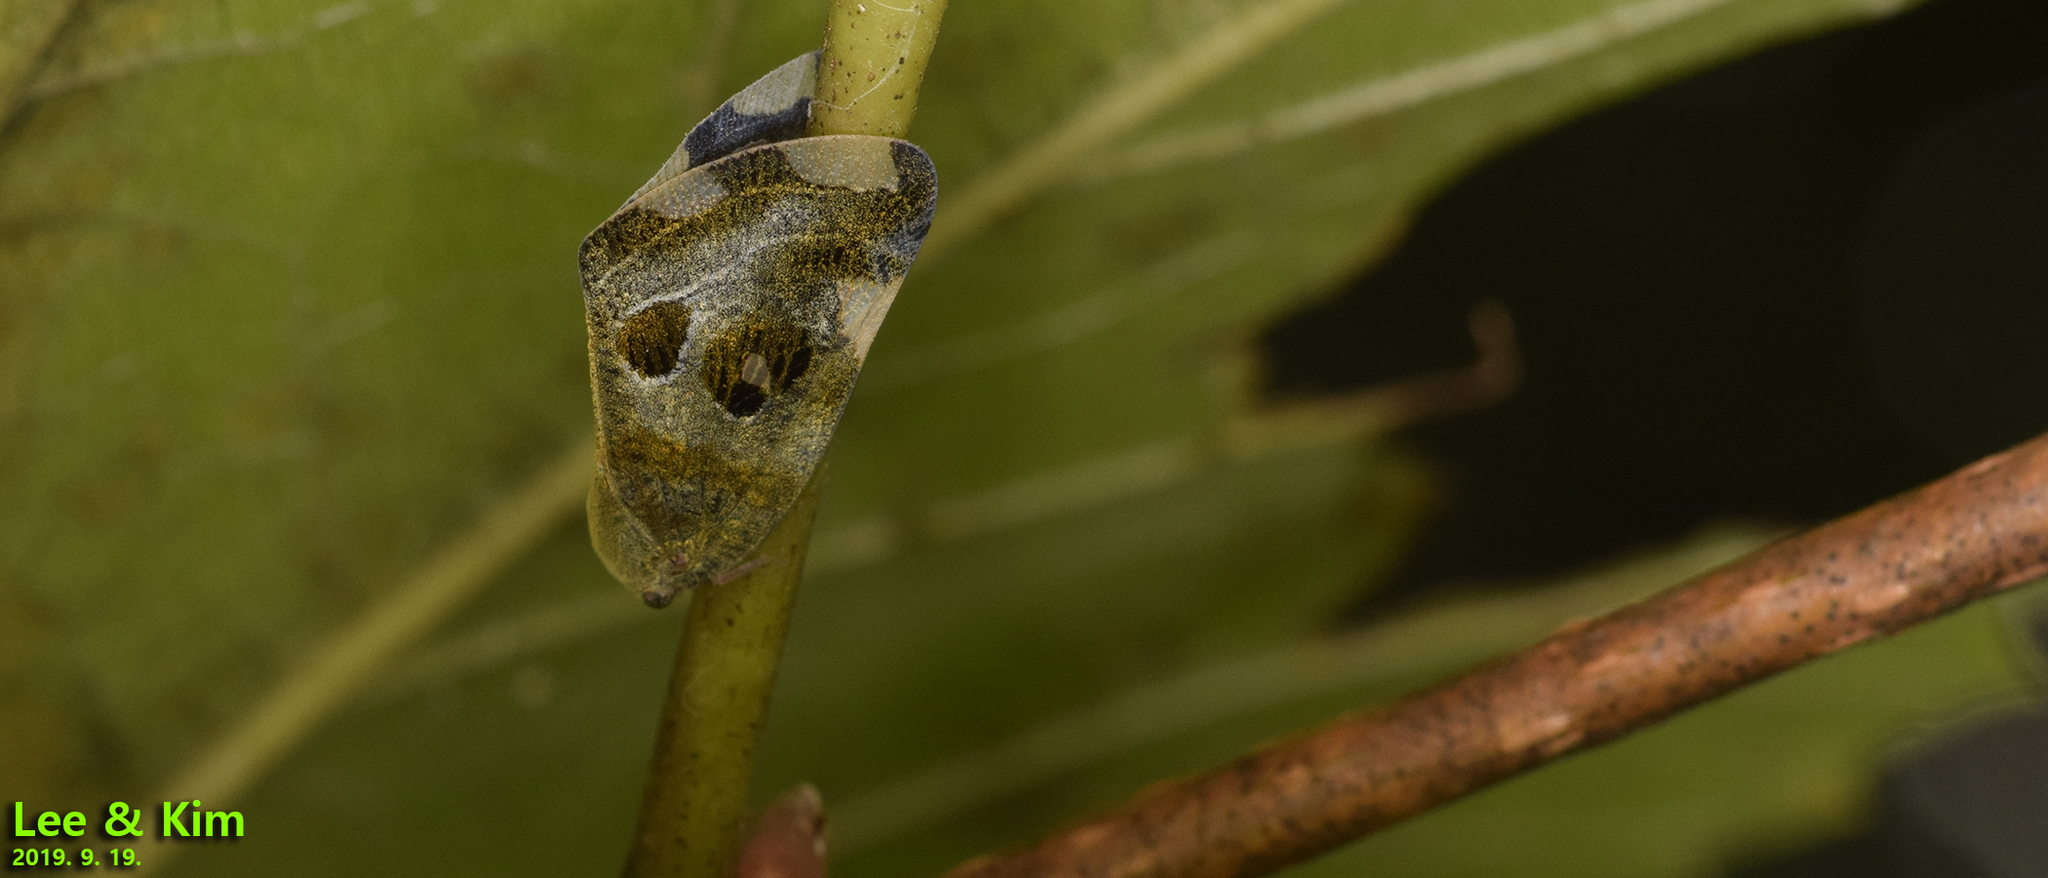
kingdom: Animalia
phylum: Arthropoda
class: Insecta
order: Hemiptera
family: Ricaniidae
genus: Ricania
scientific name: Ricania speculum
